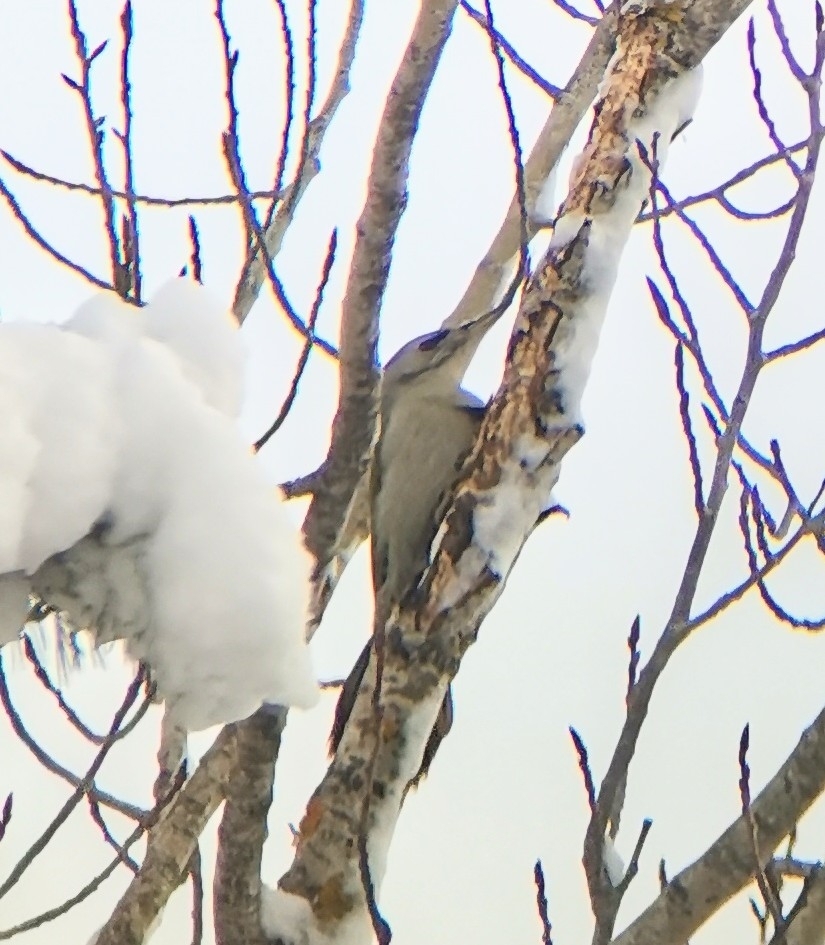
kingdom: Animalia
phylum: Chordata
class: Aves
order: Piciformes
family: Picidae
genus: Picus
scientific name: Picus canus
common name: Grey-headed woodpecker
